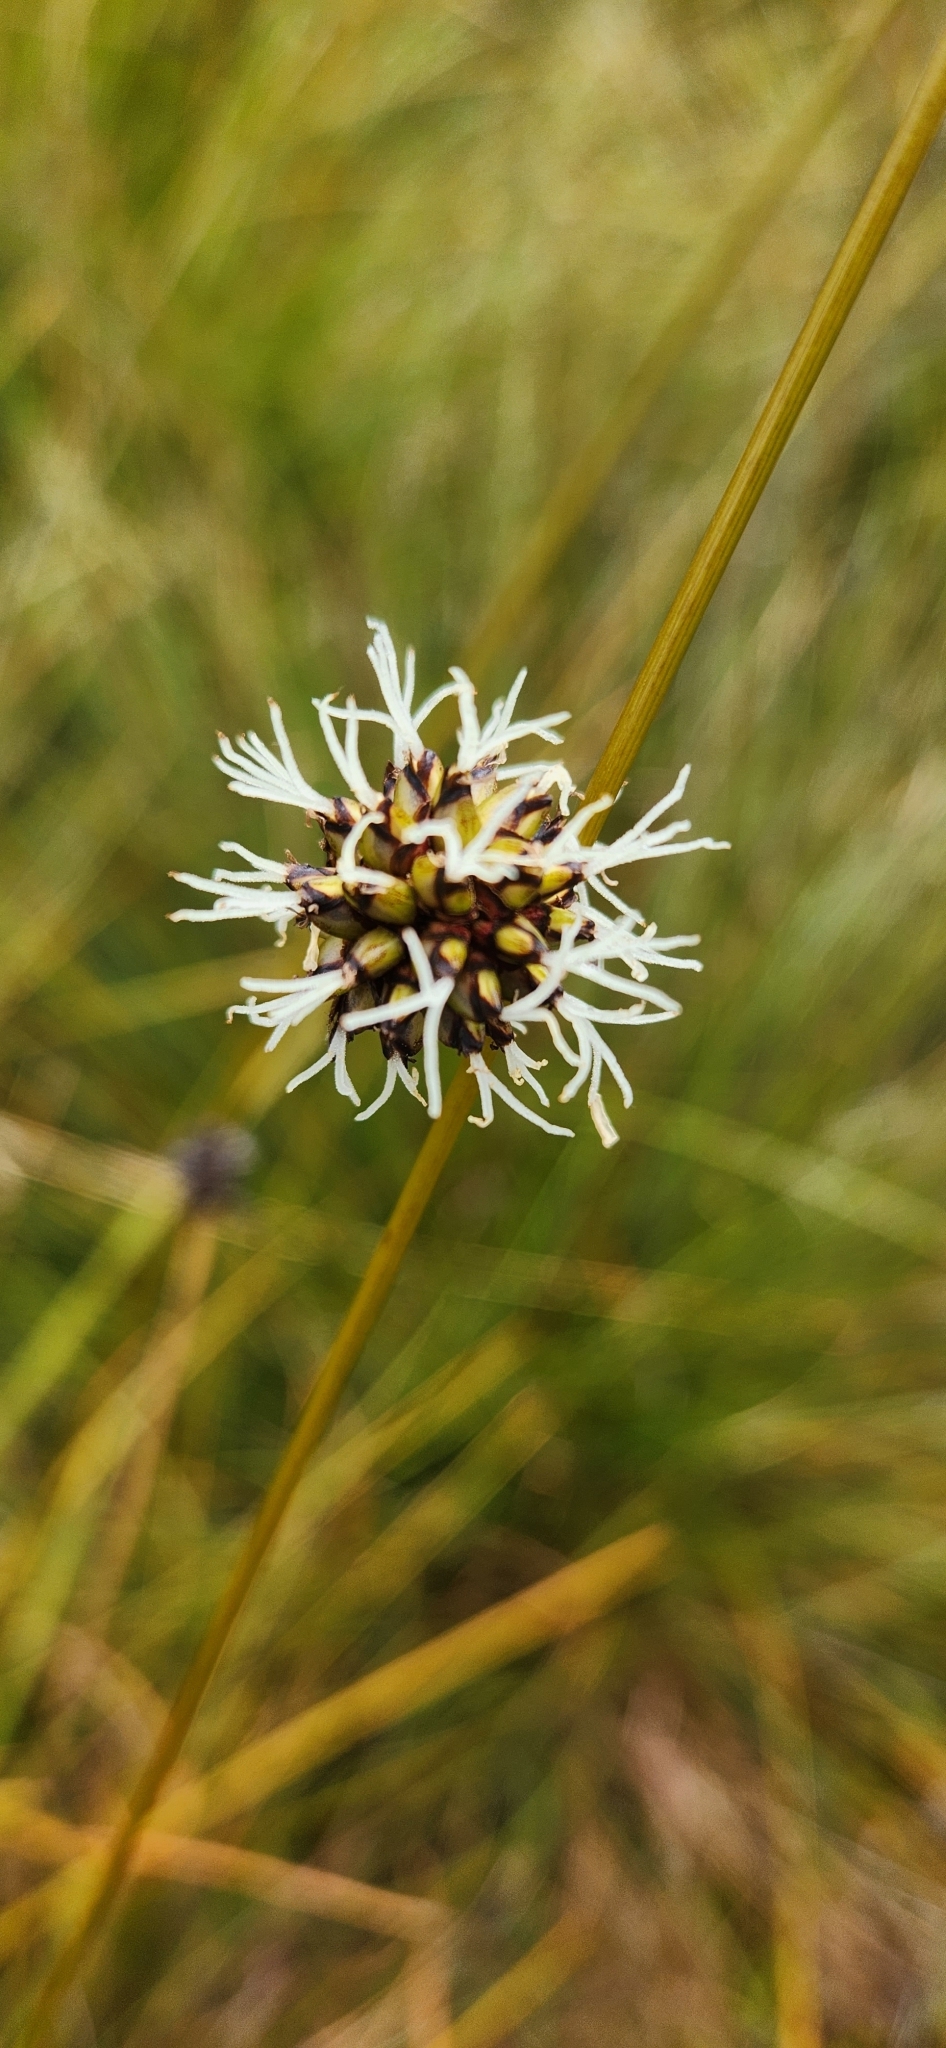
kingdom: Plantae
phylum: Tracheophyta
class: Liliopsida
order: Poales
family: Cyperaceae
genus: Gymnoschoenus
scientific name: Gymnoschoenus sphaerocephalus
